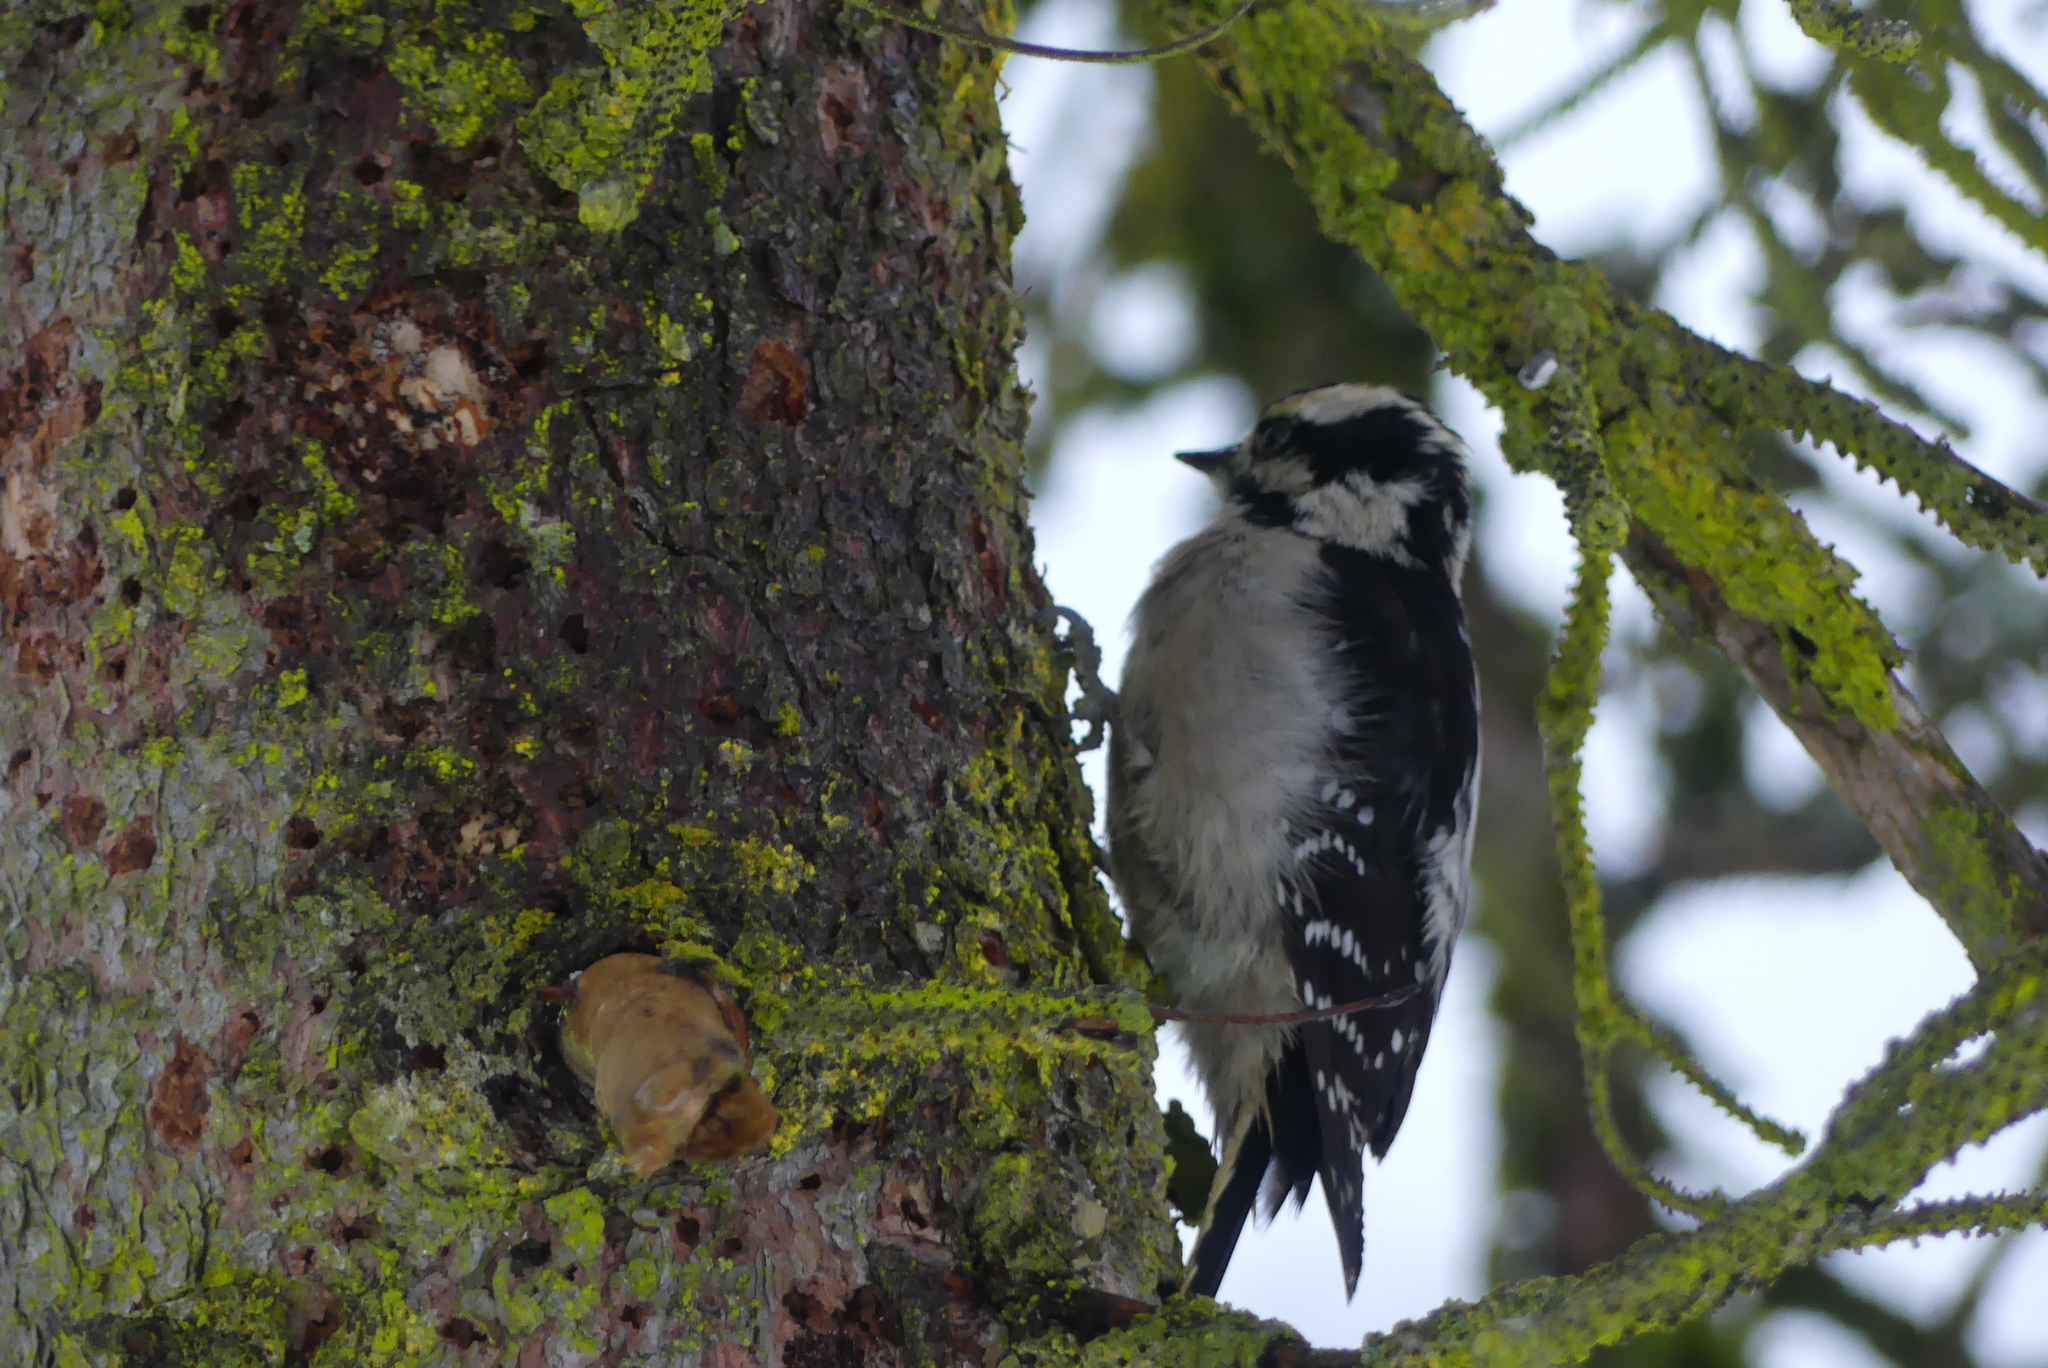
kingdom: Animalia
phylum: Chordata
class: Aves
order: Piciformes
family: Picidae
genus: Dryobates
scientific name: Dryobates pubescens
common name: Downy woodpecker
